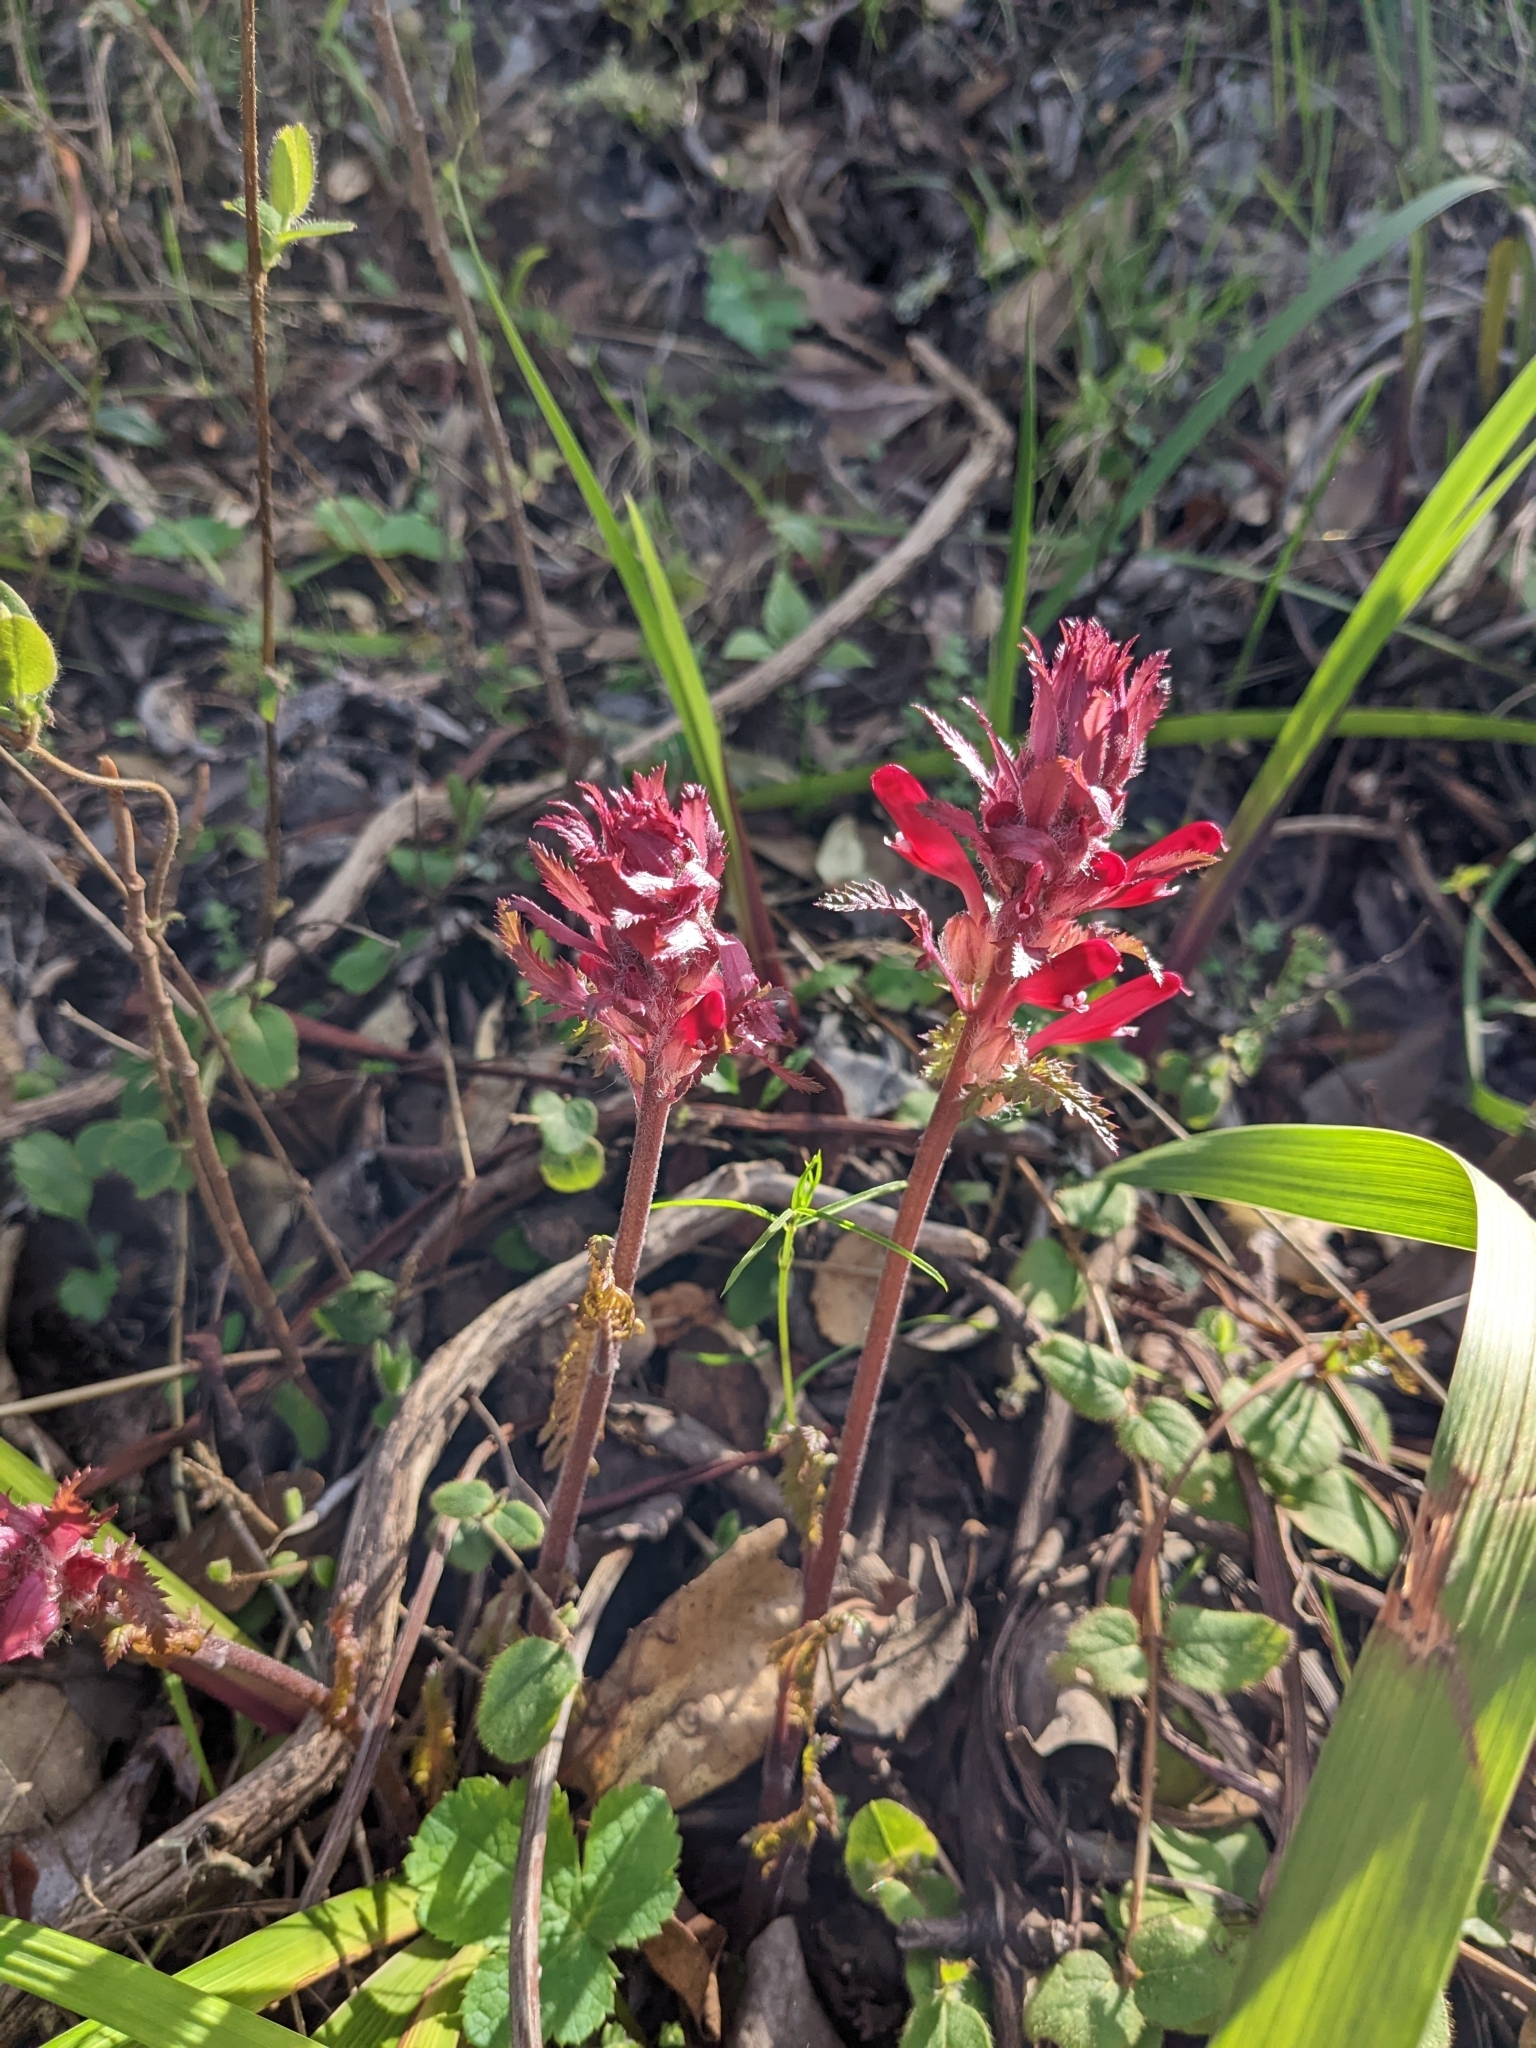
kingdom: Plantae
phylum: Tracheophyta
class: Magnoliopsida
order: Lamiales
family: Orobanchaceae
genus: Pedicularis
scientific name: Pedicularis densiflora
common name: Indian warrior
